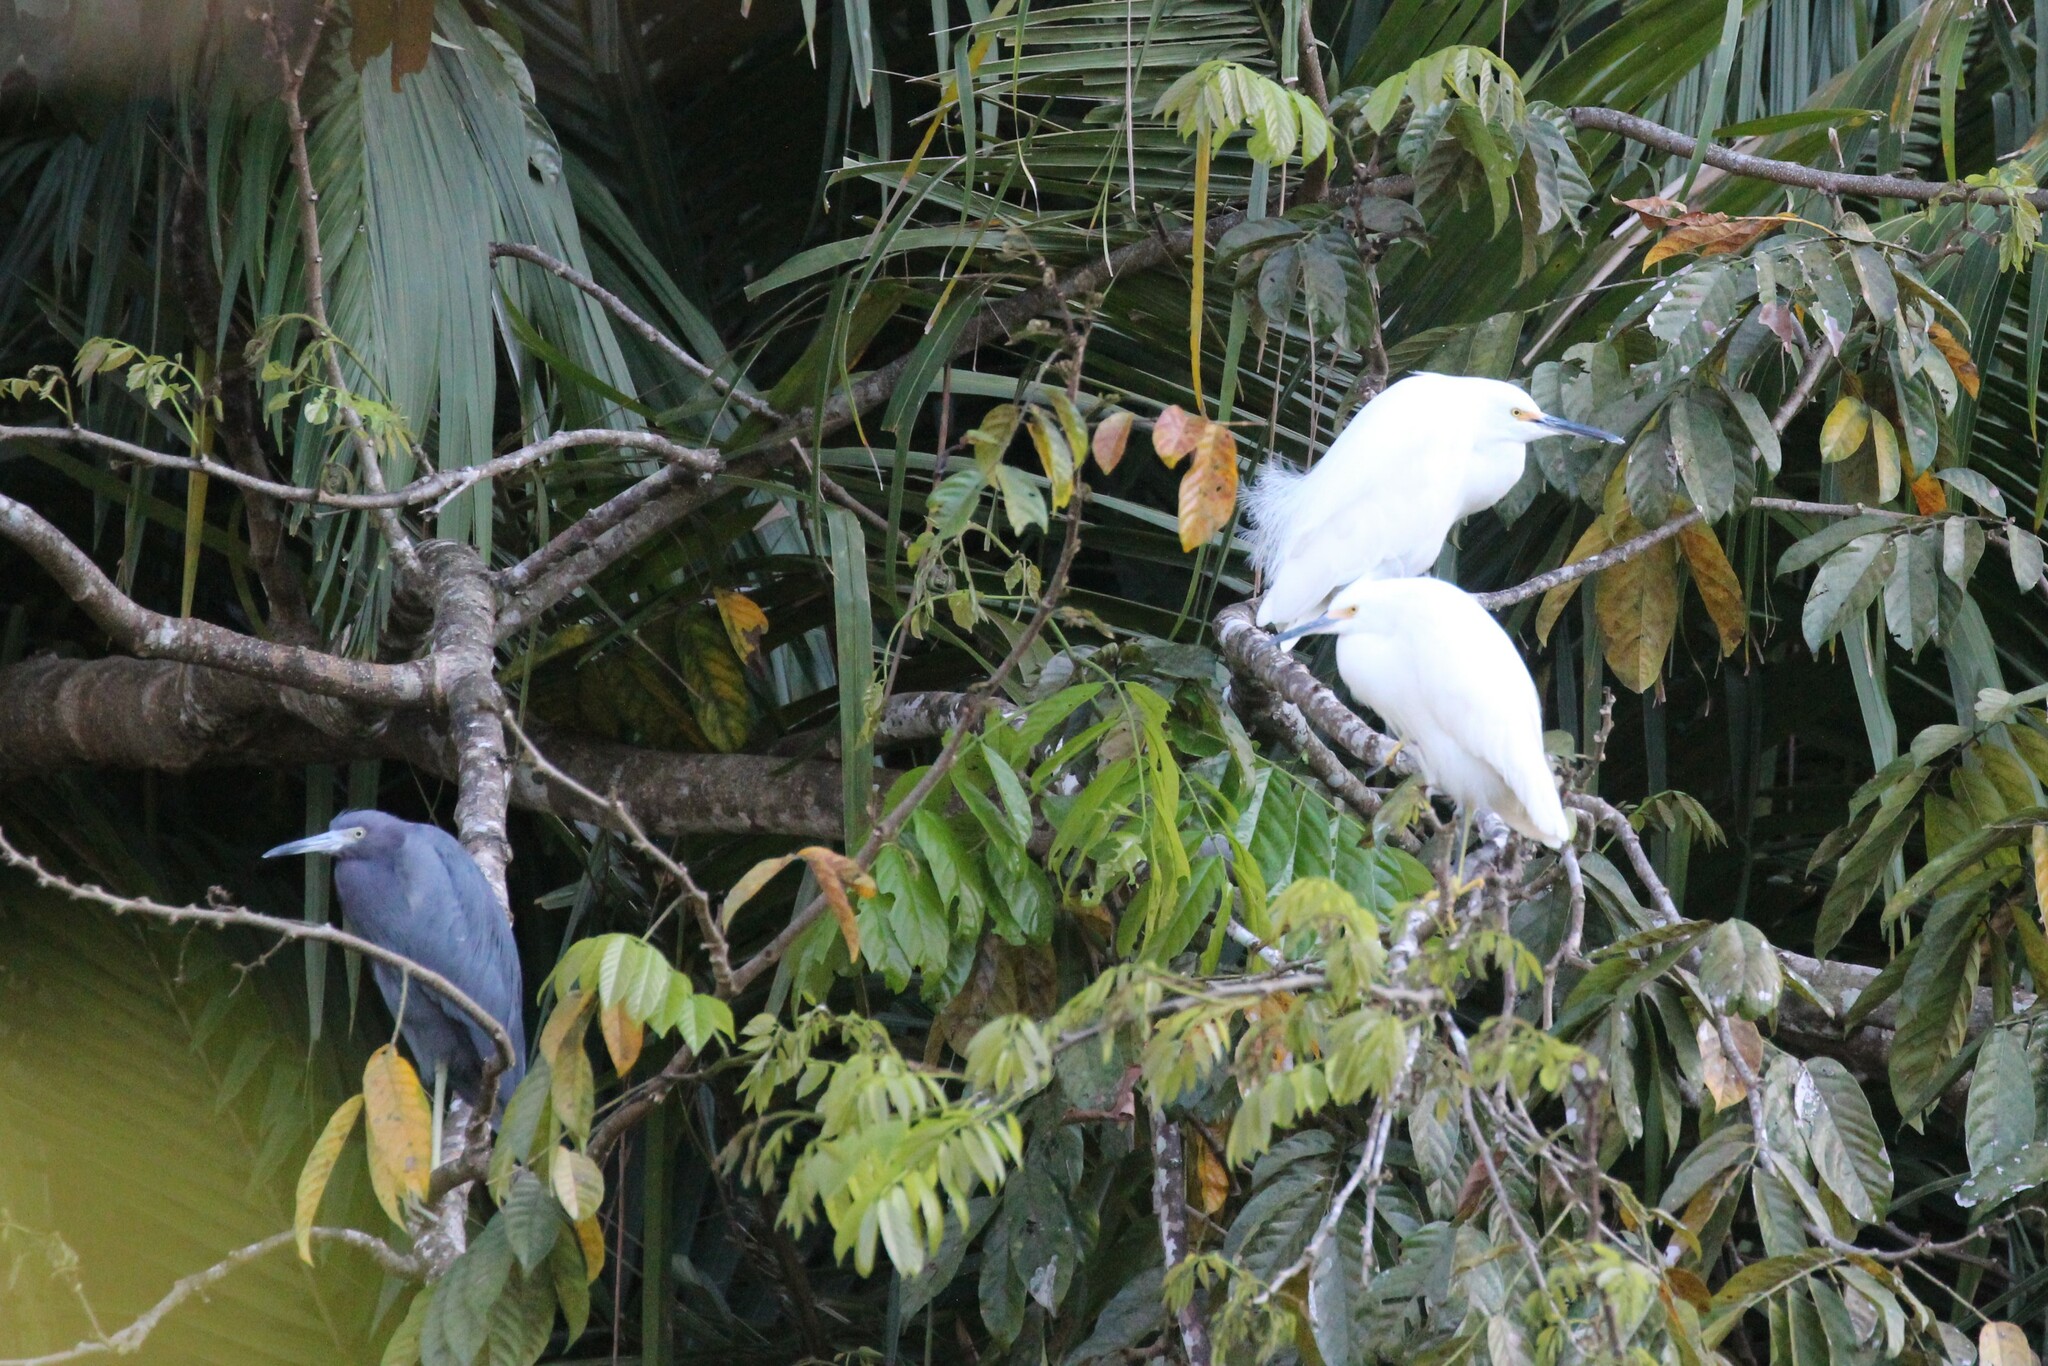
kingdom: Animalia
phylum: Chordata
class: Aves
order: Pelecaniformes
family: Ardeidae
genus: Egretta
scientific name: Egretta thula
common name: Snowy egret
